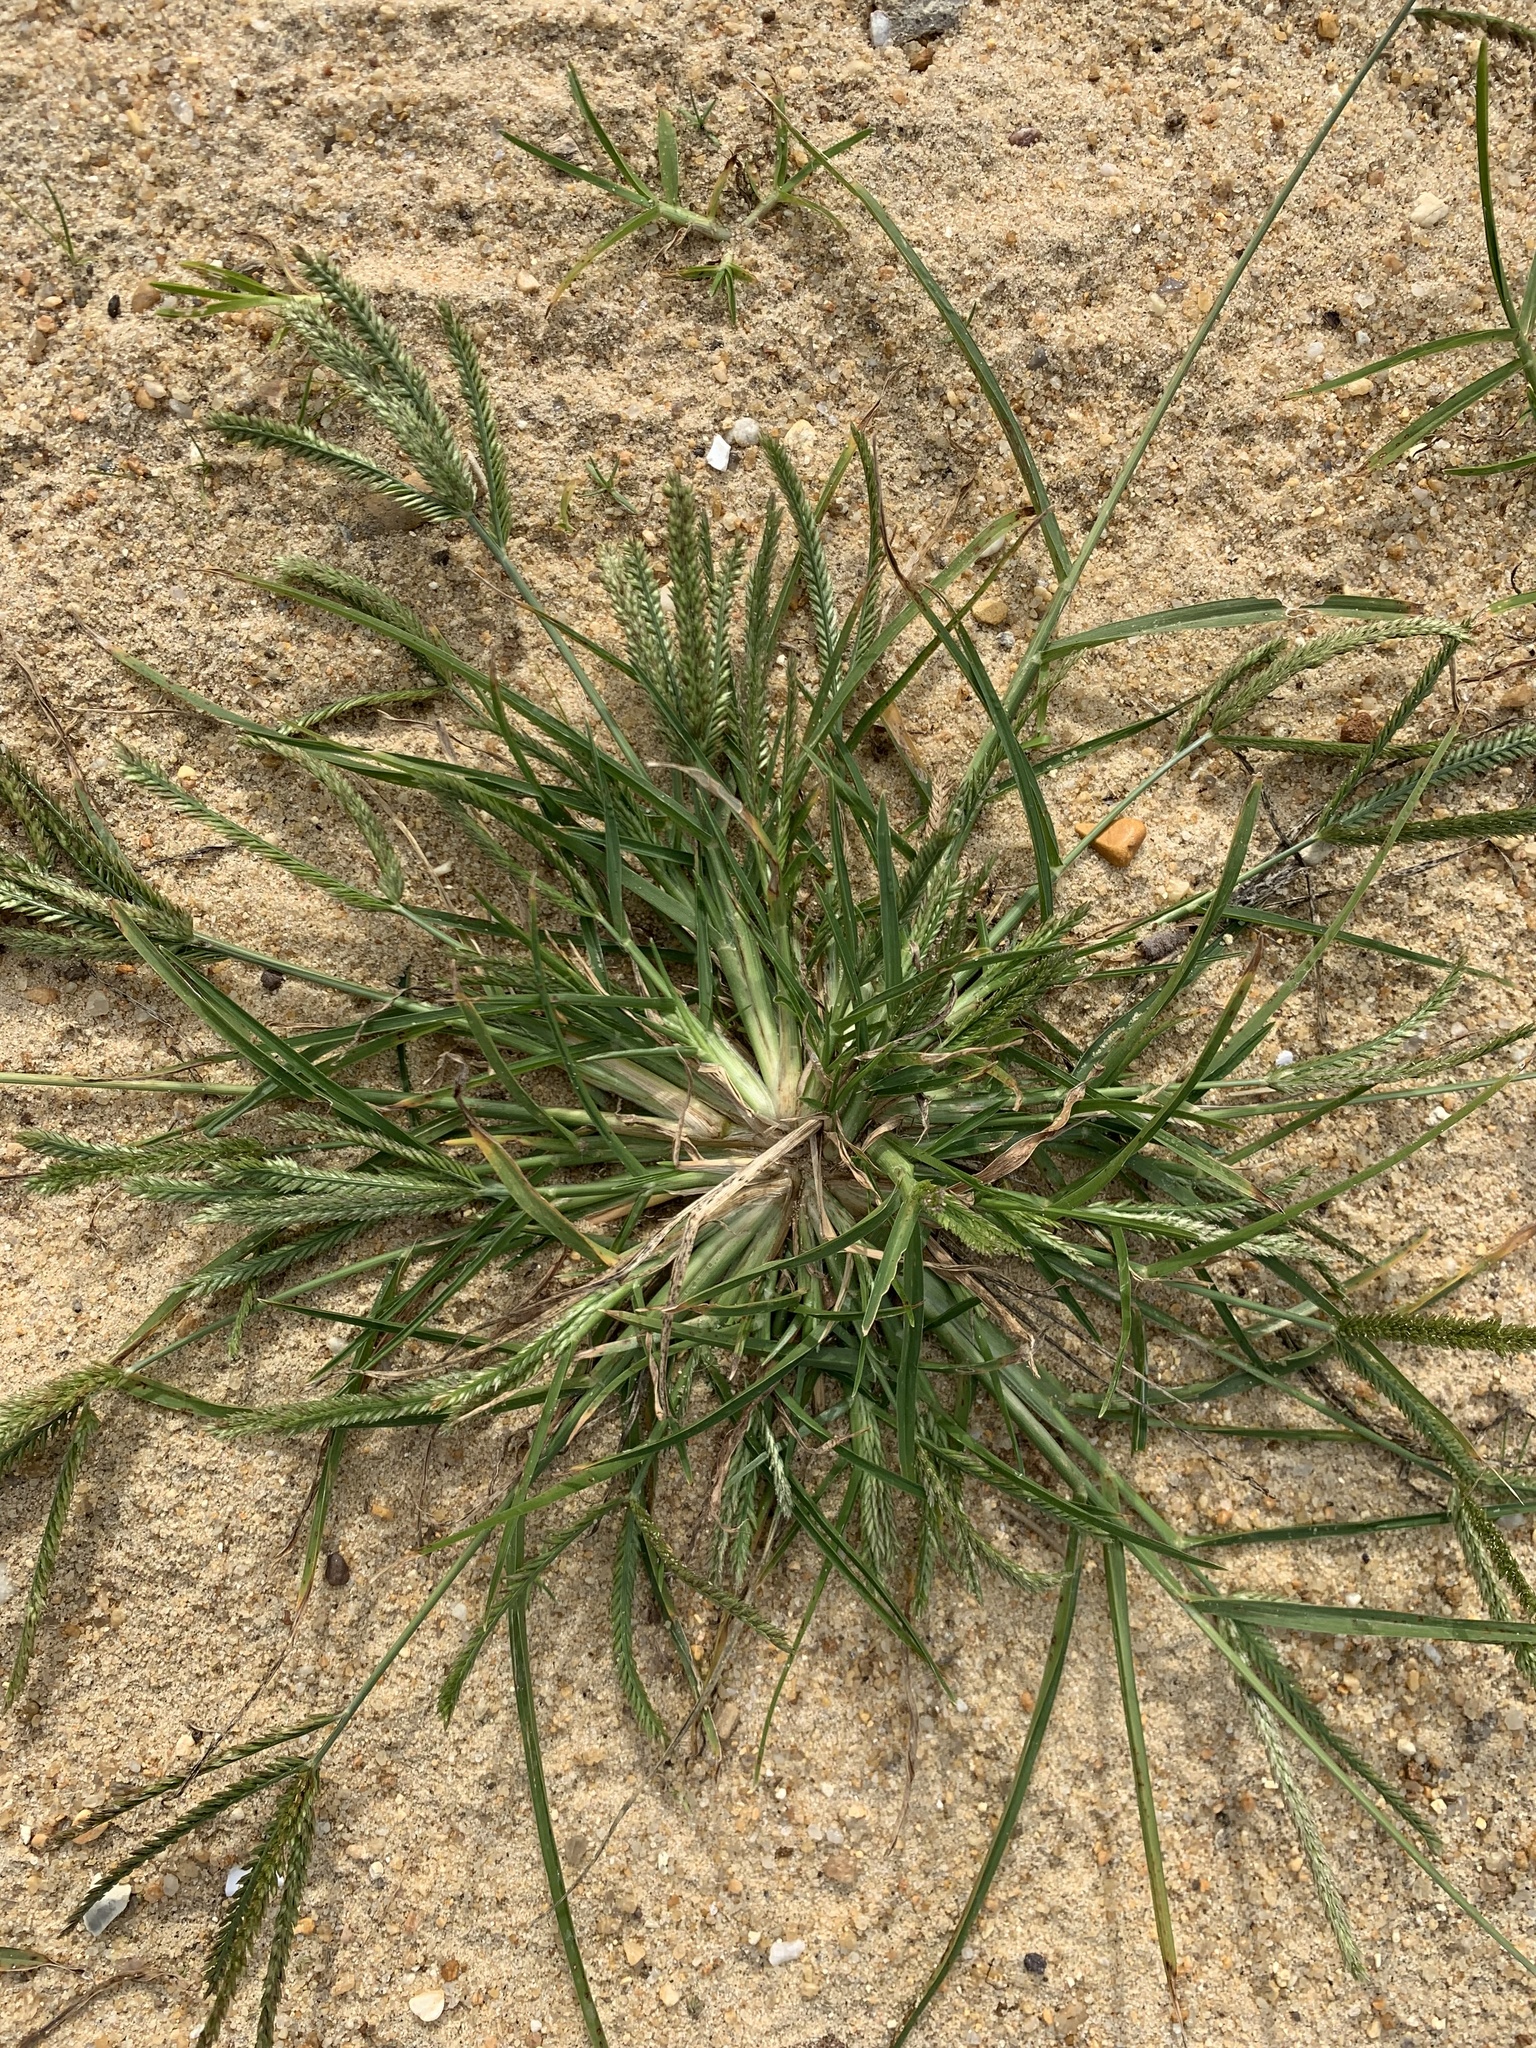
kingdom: Plantae
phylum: Tracheophyta
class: Liliopsida
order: Poales
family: Poaceae
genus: Eleusine
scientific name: Eleusine indica
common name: Yard-grass
